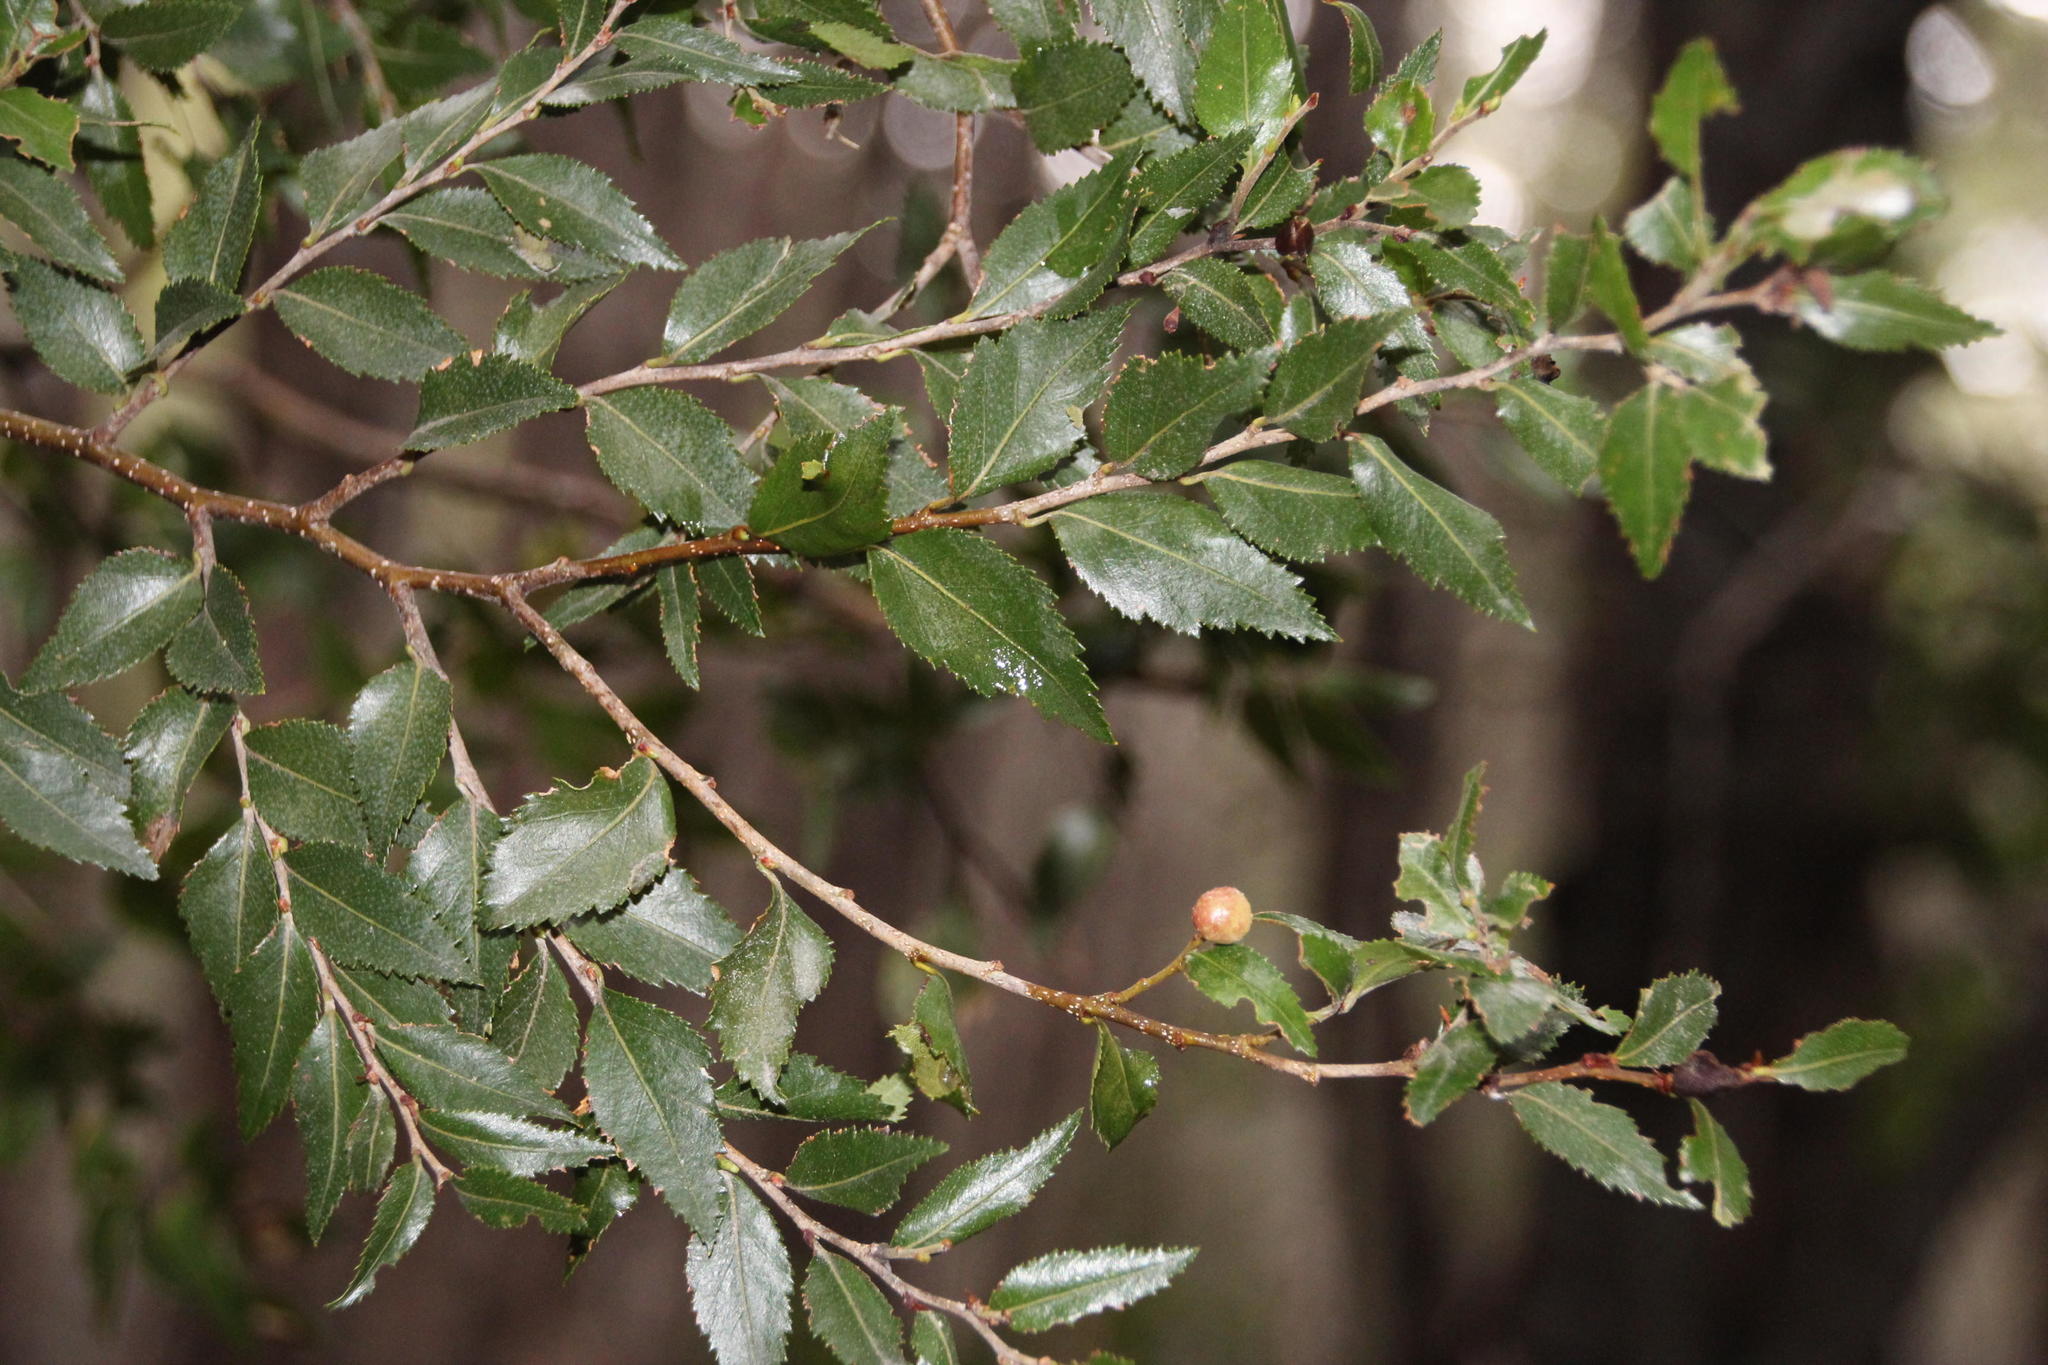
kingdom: Plantae
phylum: Tracheophyta
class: Magnoliopsida
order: Fagales
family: Nothofagaceae
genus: Nothofagus
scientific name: Nothofagus dombeyi
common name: Coigue
